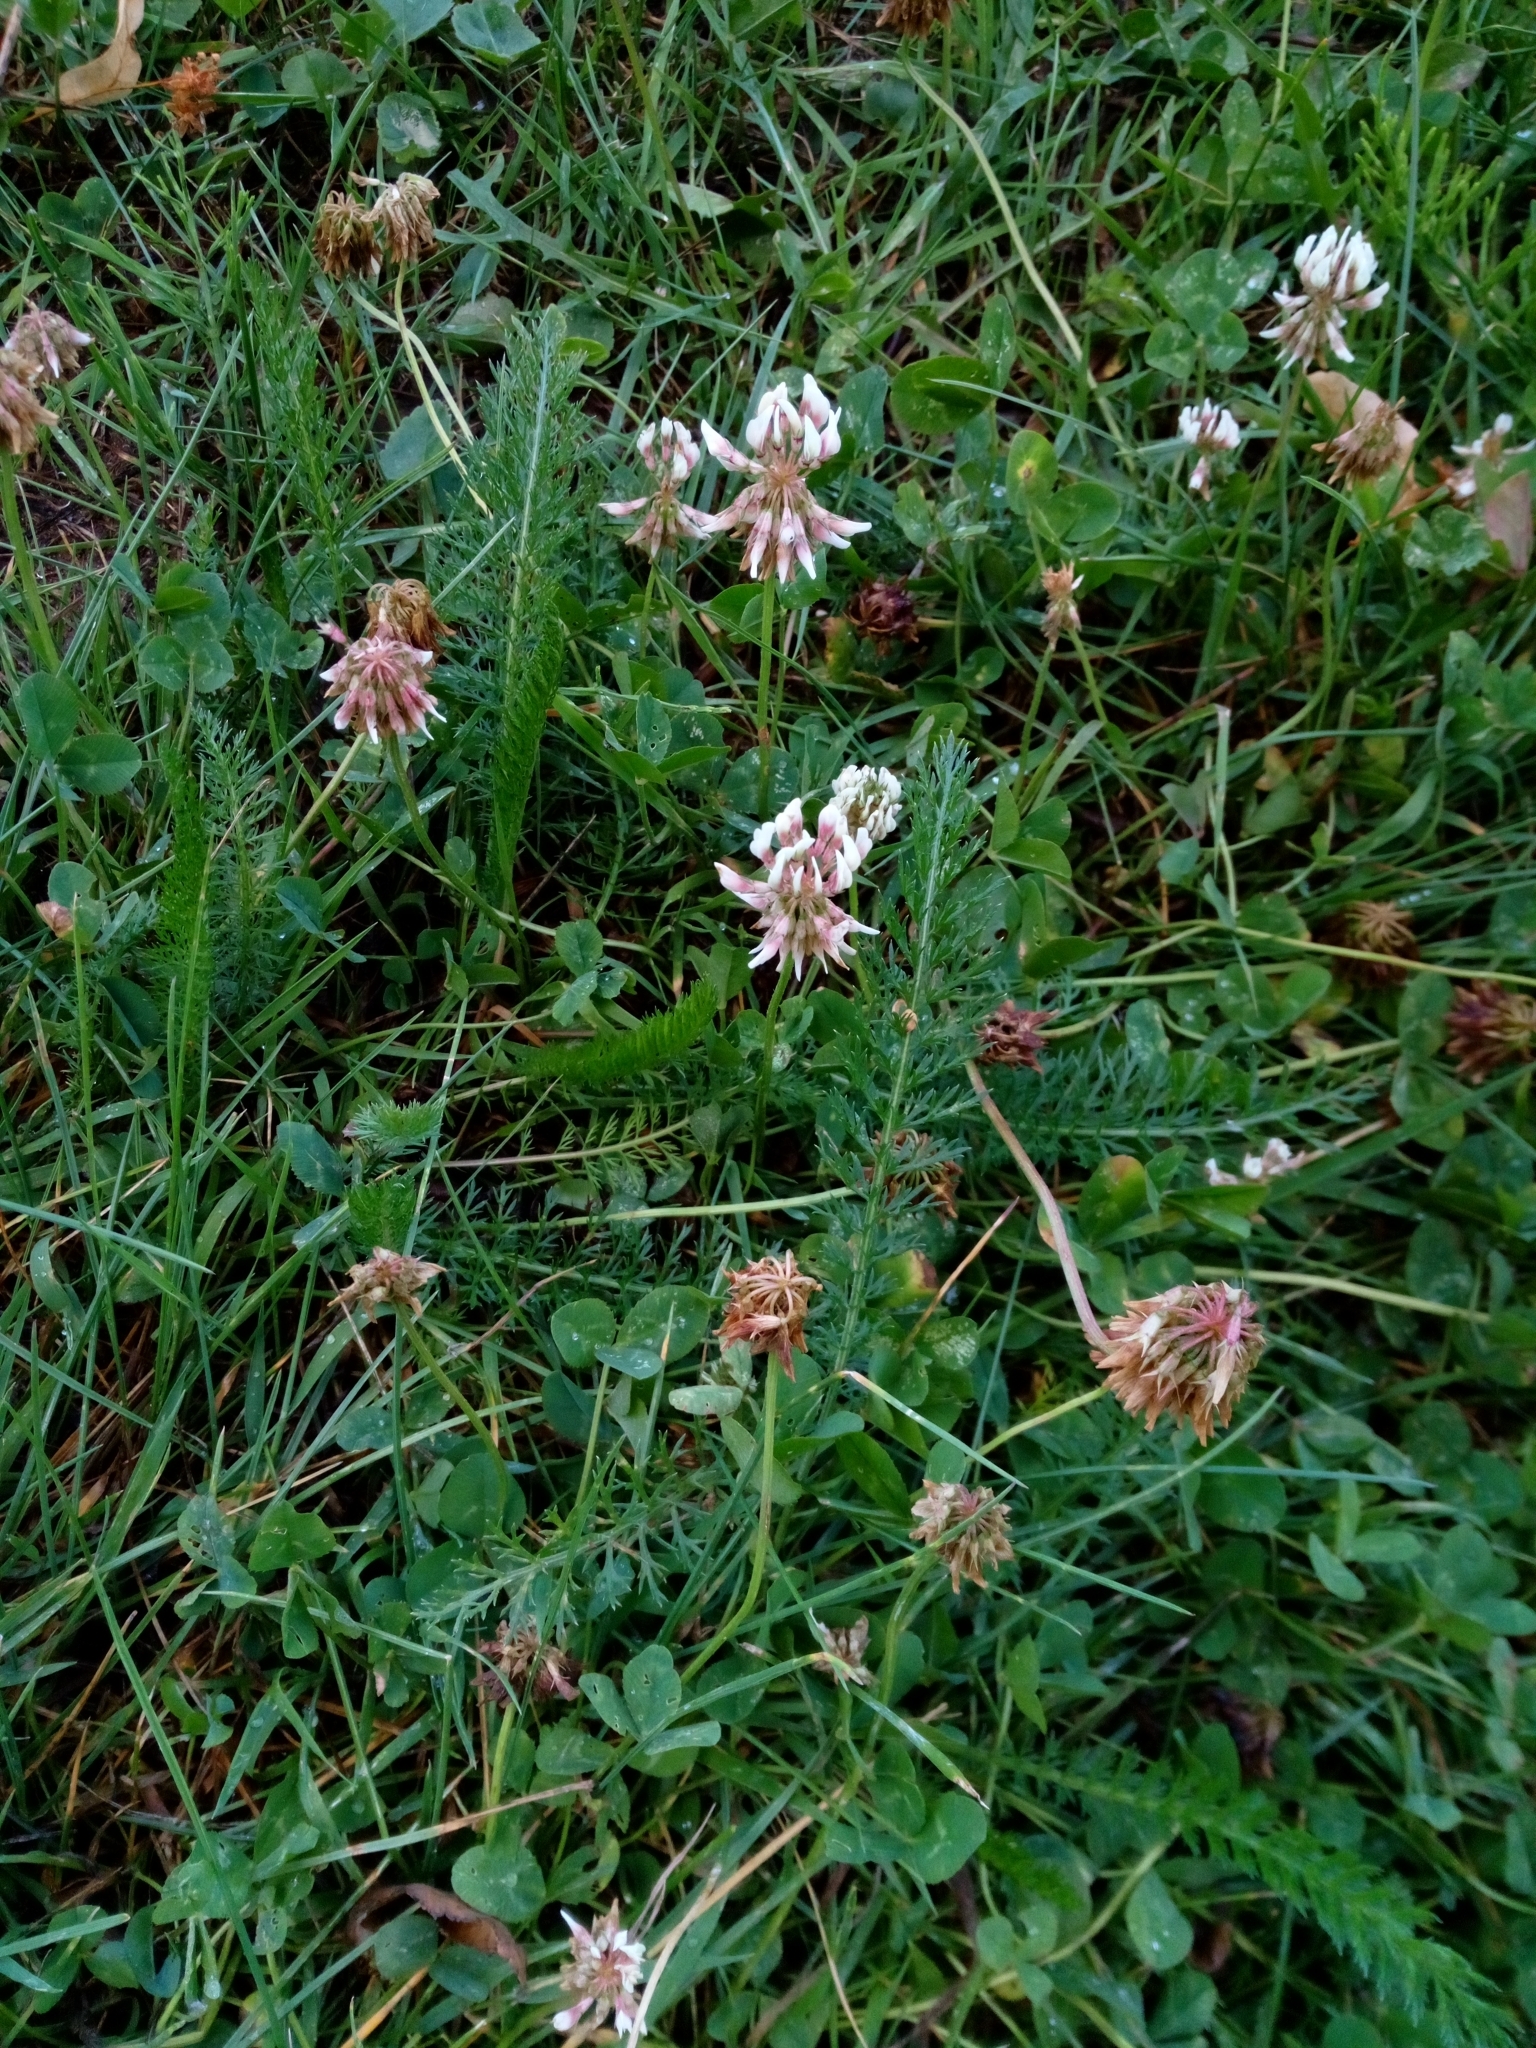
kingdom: Plantae
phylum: Tracheophyta
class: Magnoliopsida
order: Fabales
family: Fabaceae
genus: Trifolium
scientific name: Trifolium repens
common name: White clover
